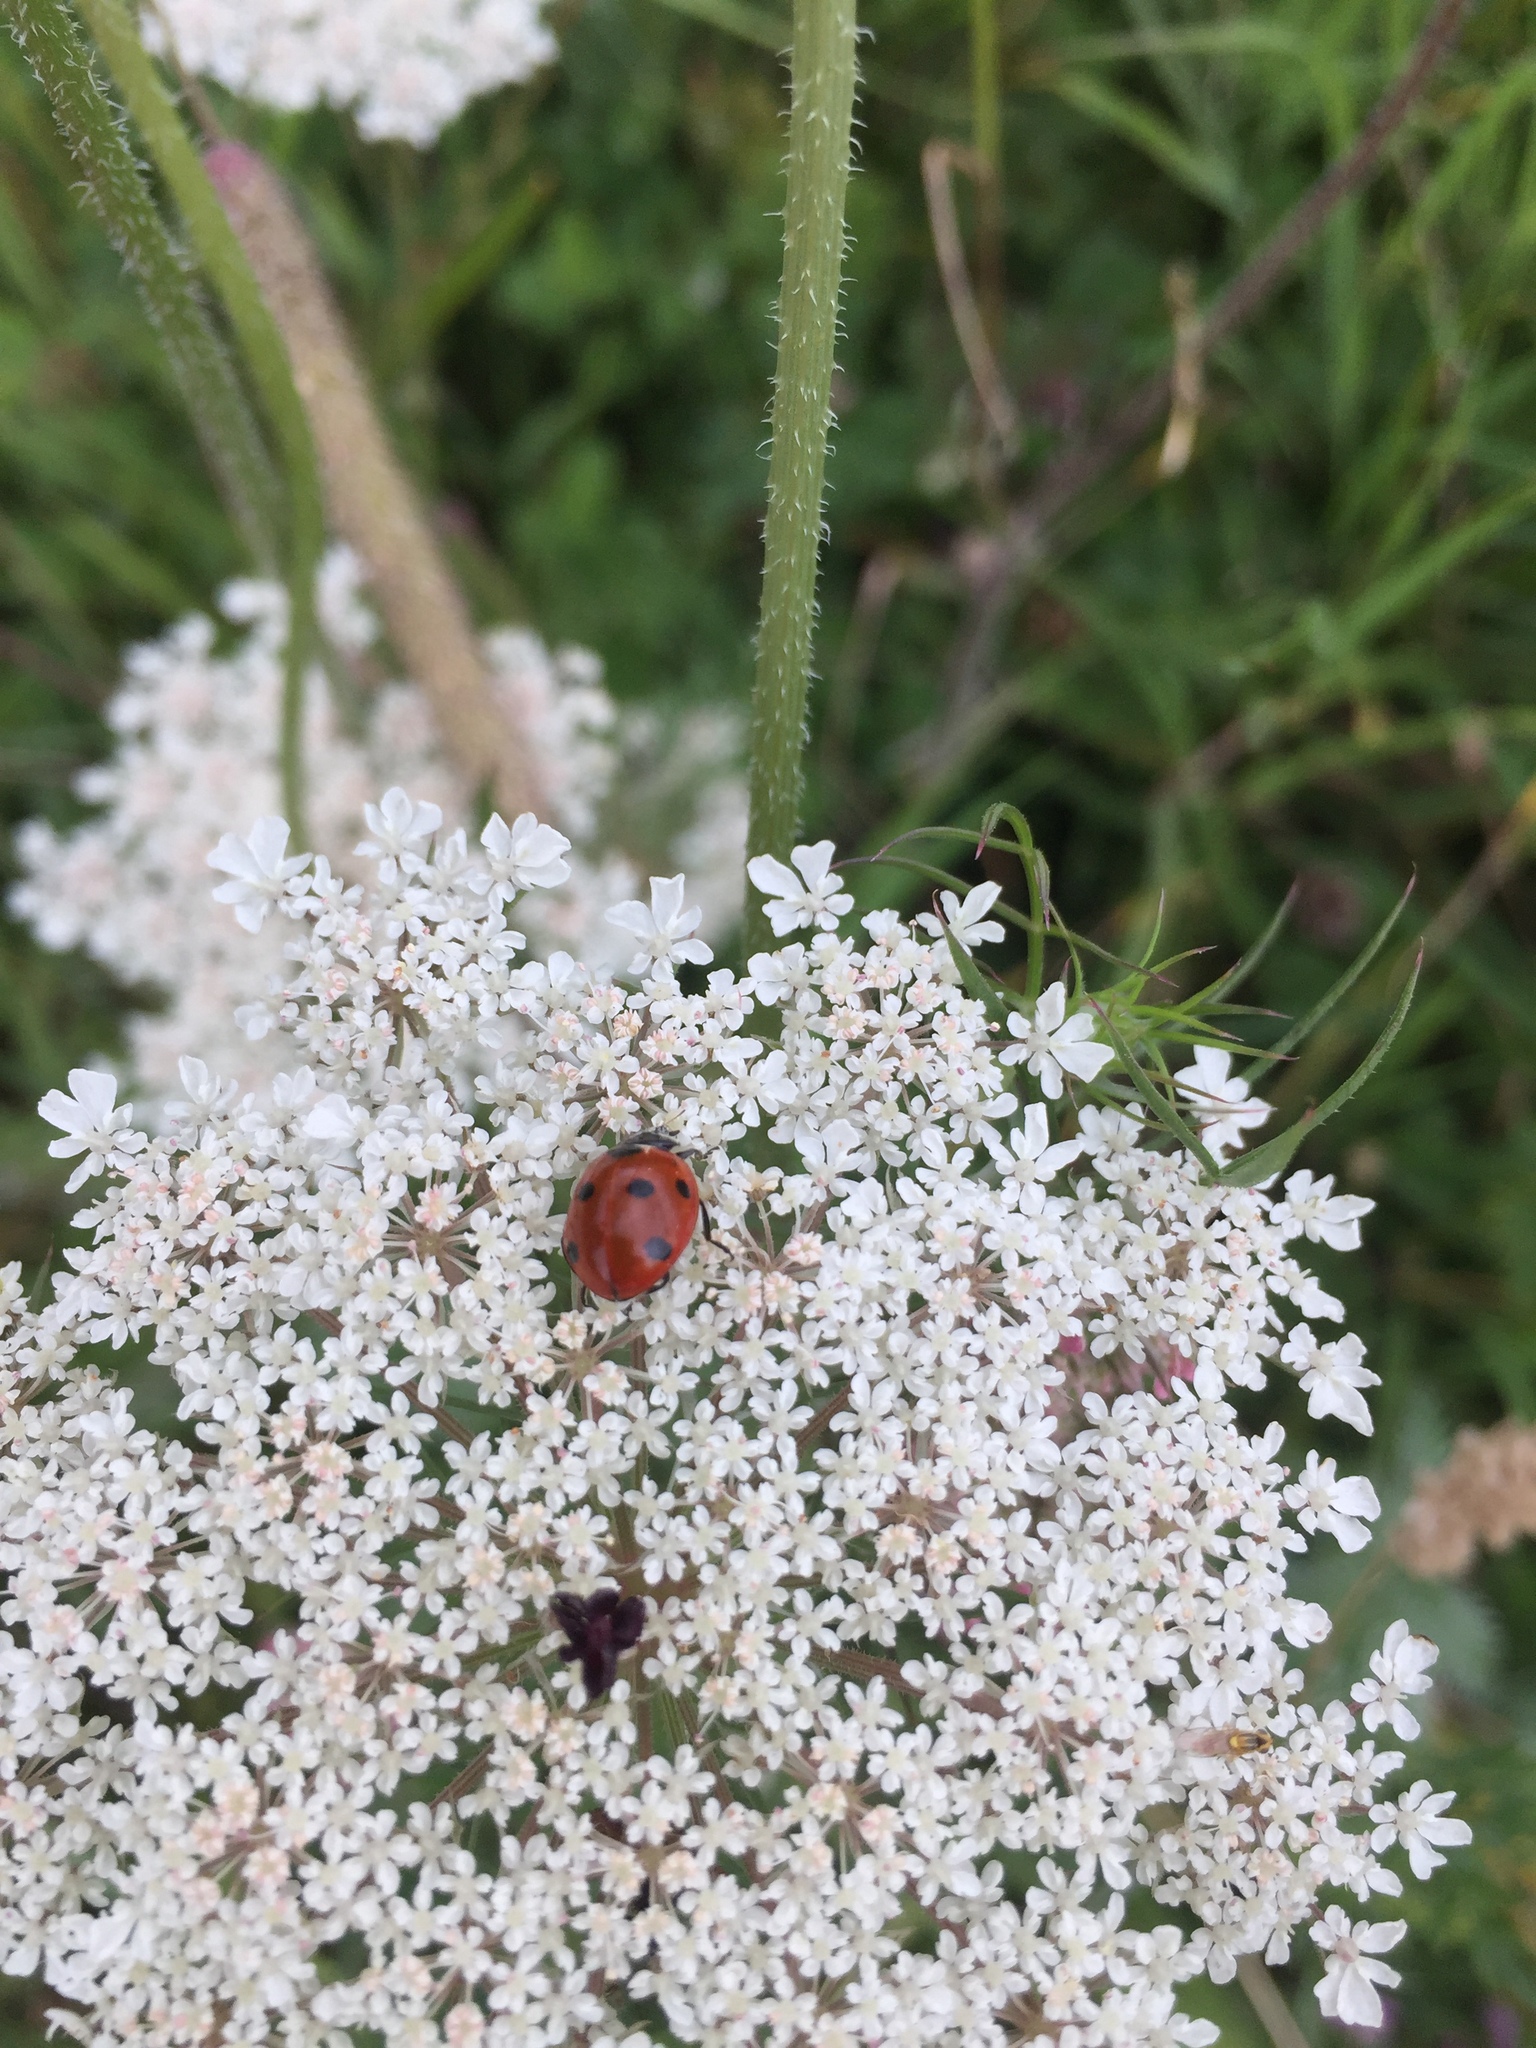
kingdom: Animalia
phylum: Arthropoda
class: Insecta
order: Coleoptera
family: Coccinellidae
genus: Coccinella
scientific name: Coccinella septempunctata
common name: Sevenspotted lady beetle
